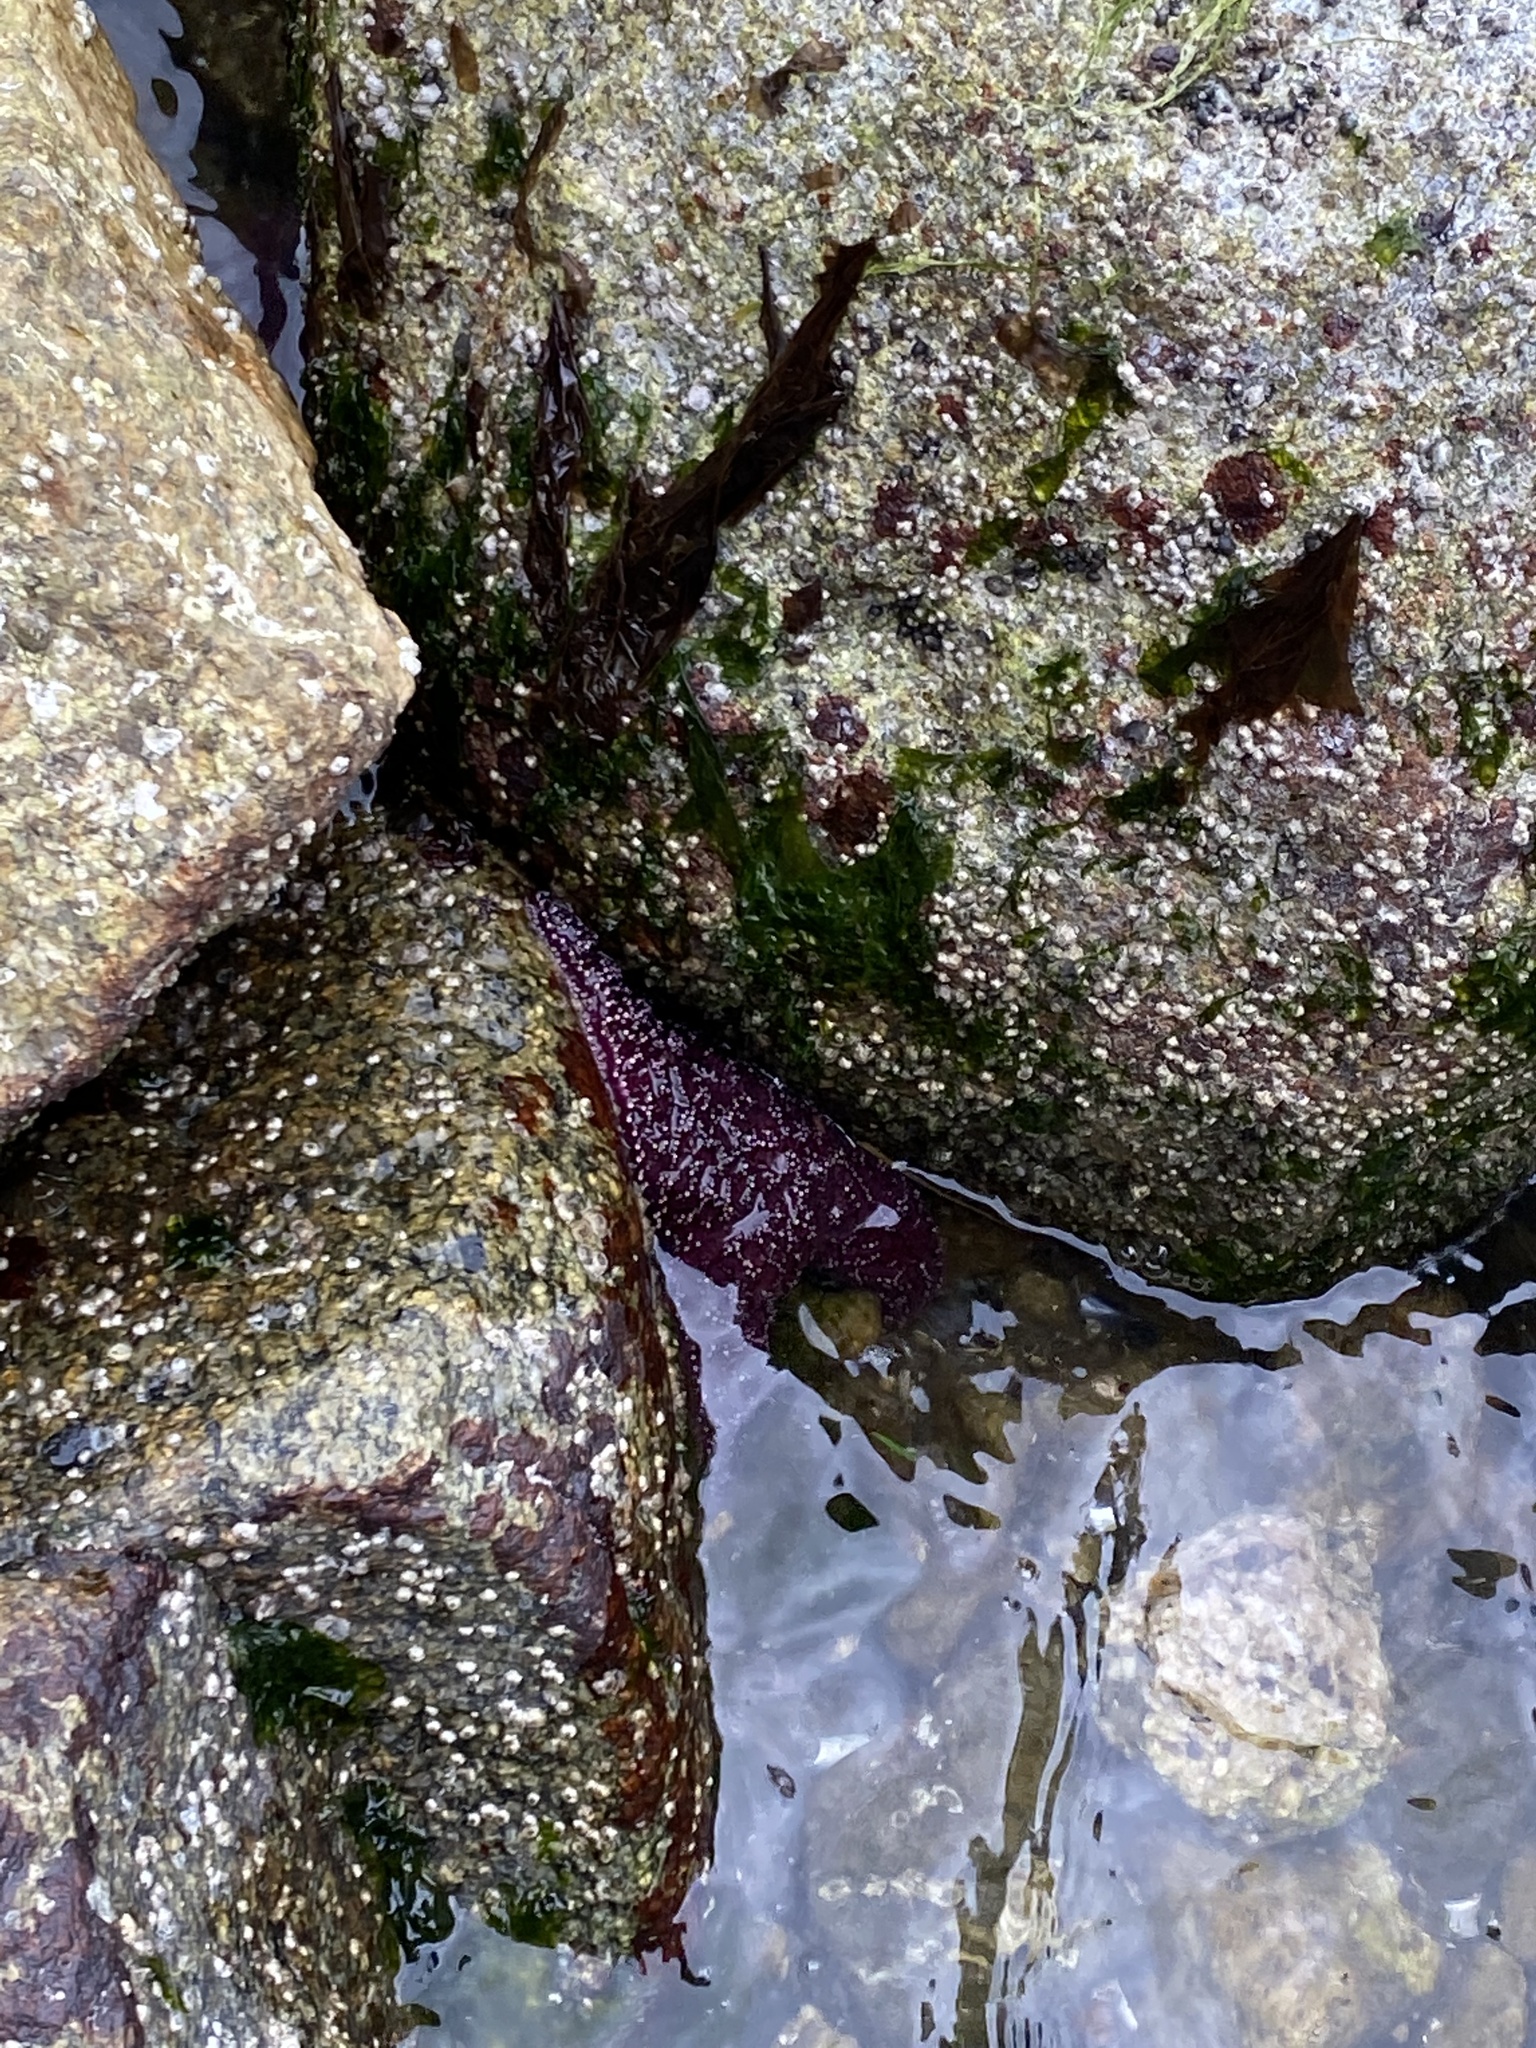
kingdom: Animalia
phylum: Echinodermata
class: Asteroidea
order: Forcipulatida
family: Asteriidae
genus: Pisaster
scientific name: Pisaster ochraceus
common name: Ochre stars
